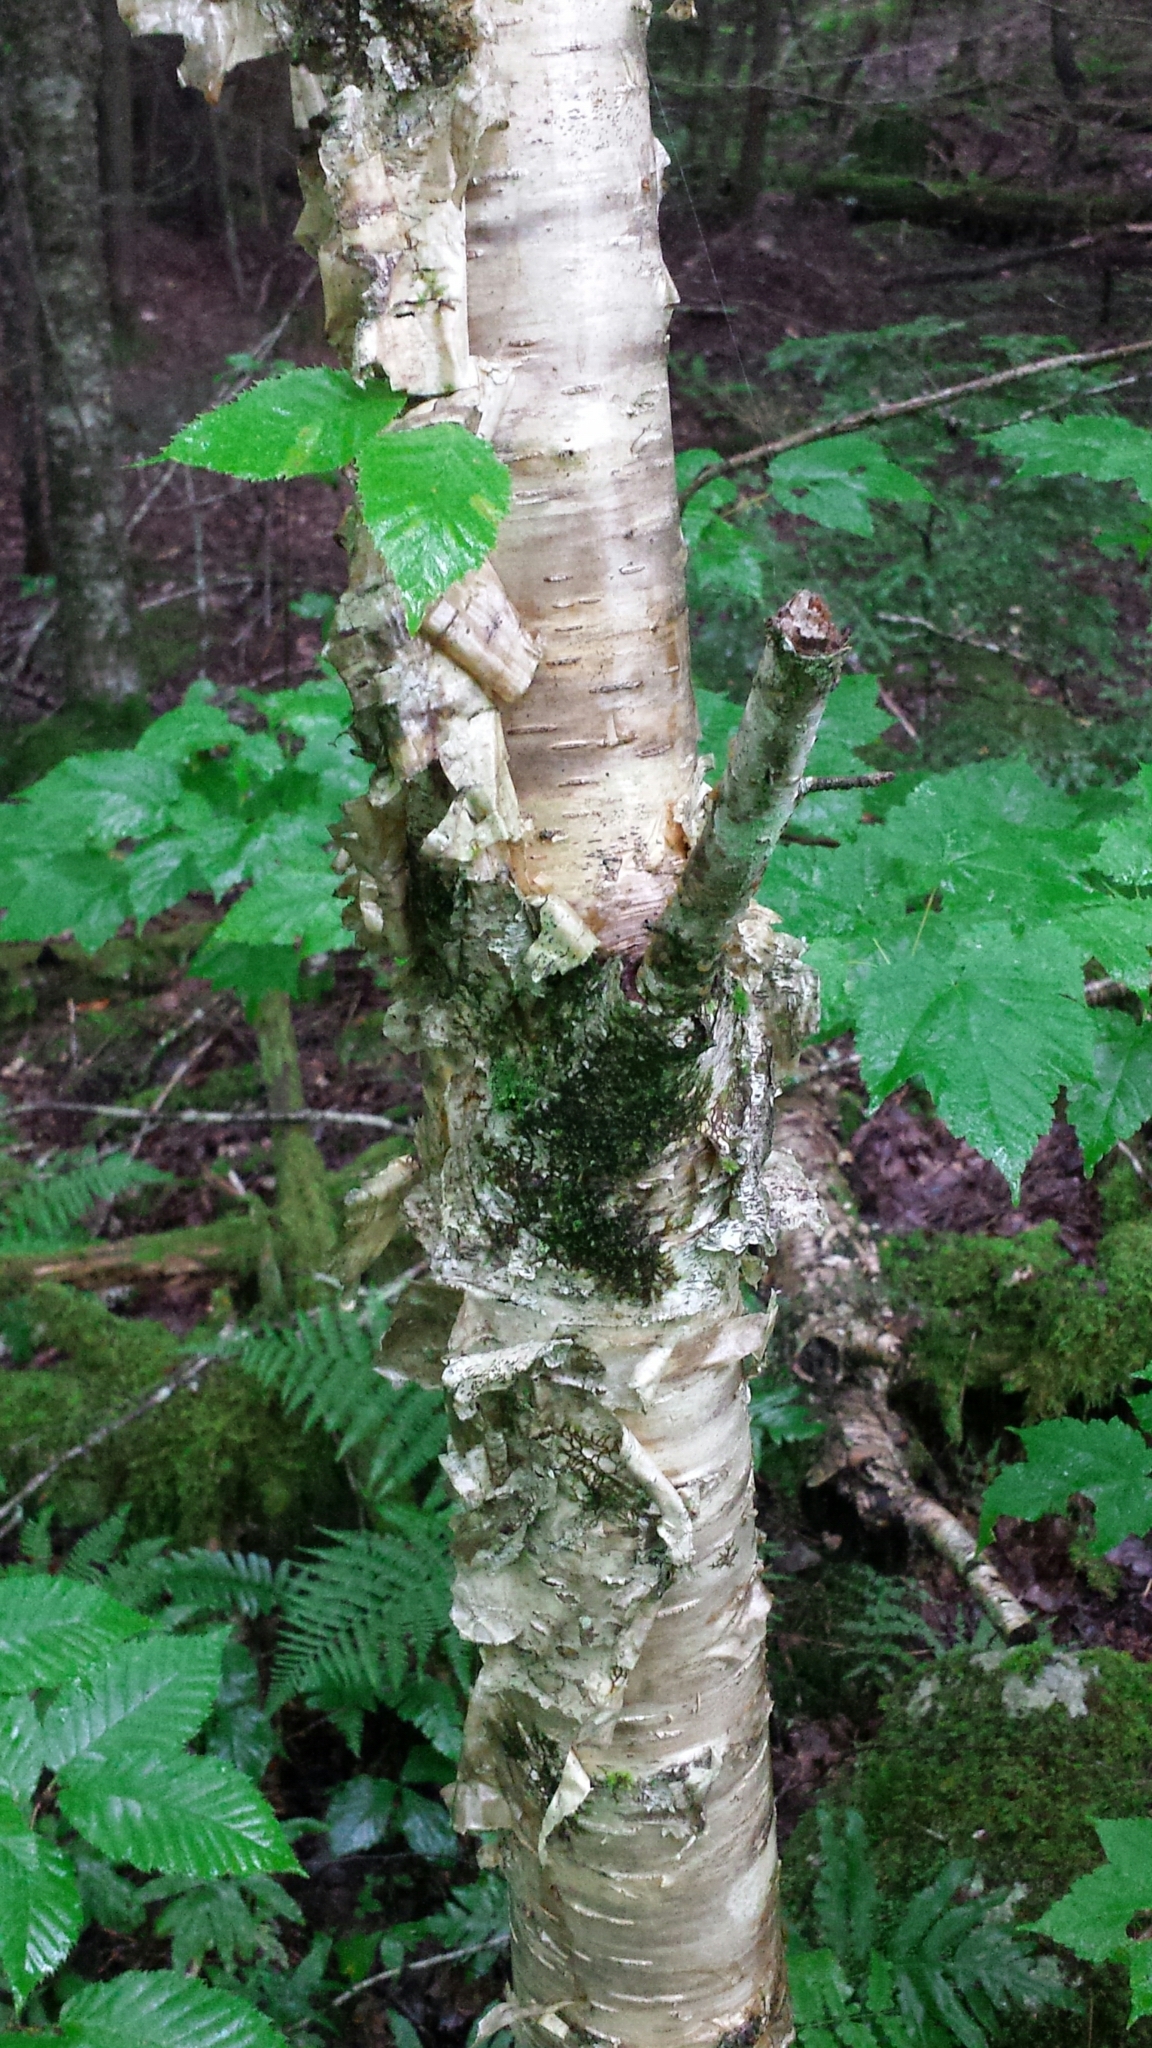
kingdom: Plantae
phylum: Tracheophyta
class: Magnoliopsida
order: Fagales
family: Betulaceae
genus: Betula
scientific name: Betula alleghaniensis
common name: Yellow birch
